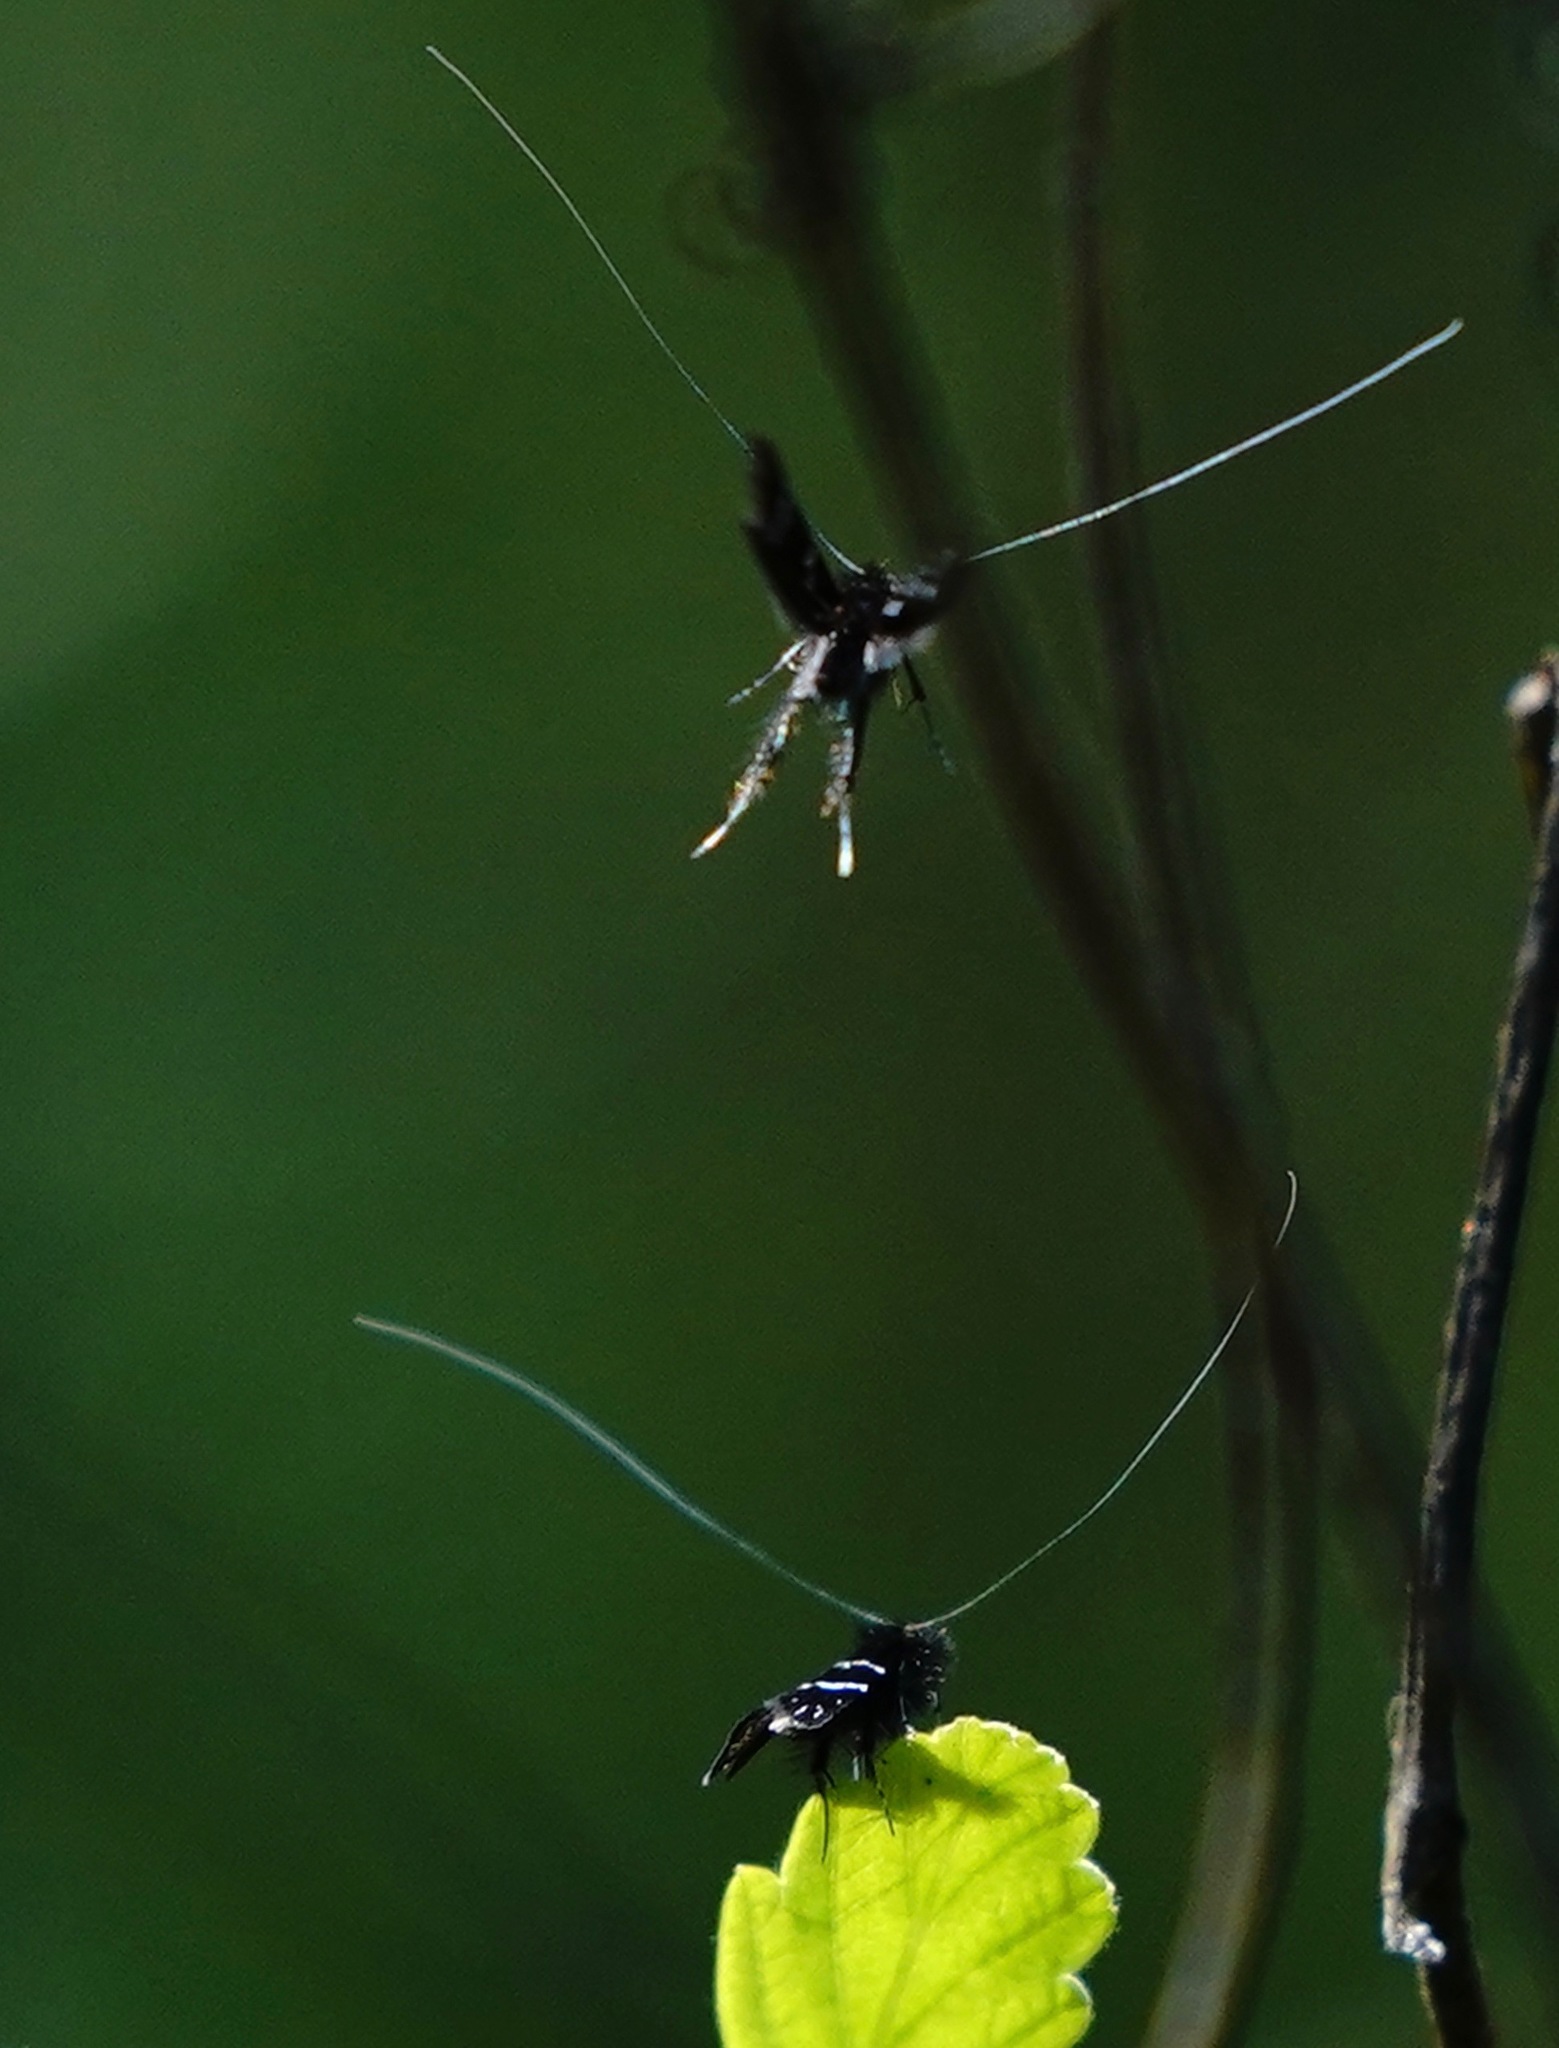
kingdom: Animalia
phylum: Arthropoda
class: Insecta
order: Lepidoptera
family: Adelidae
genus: Adela
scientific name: Adela septentrionella
